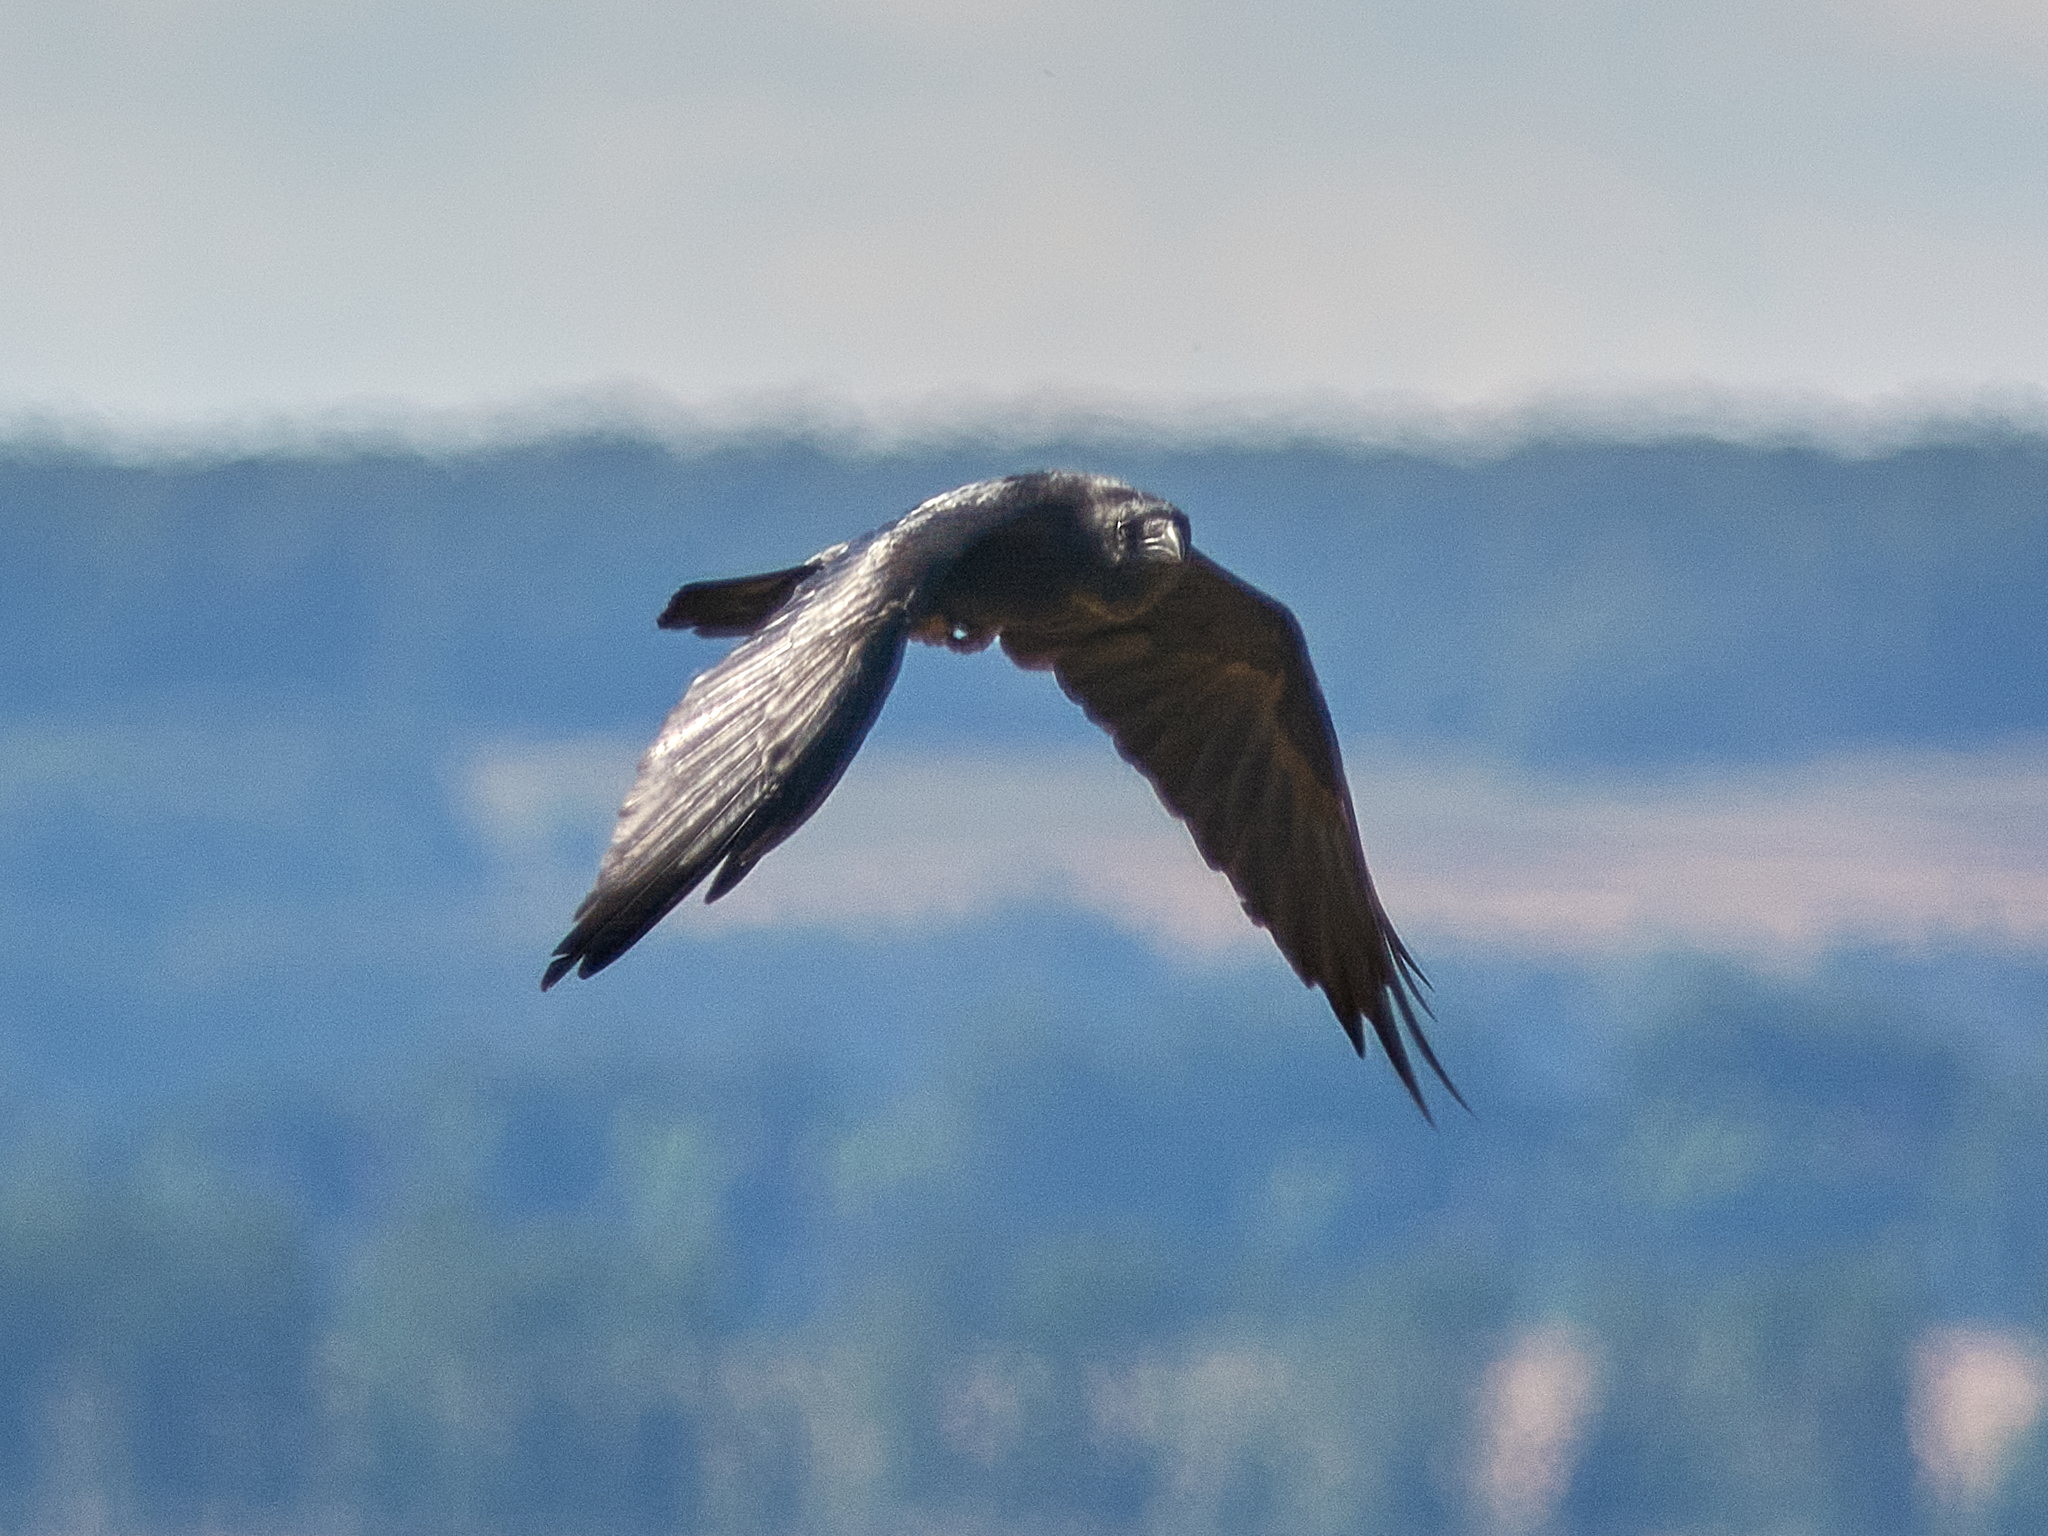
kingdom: Animalia
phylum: Chordata
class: Aves
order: Passeriformes
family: Corvidae
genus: Corvus
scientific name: Corvus corax
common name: Common raven
